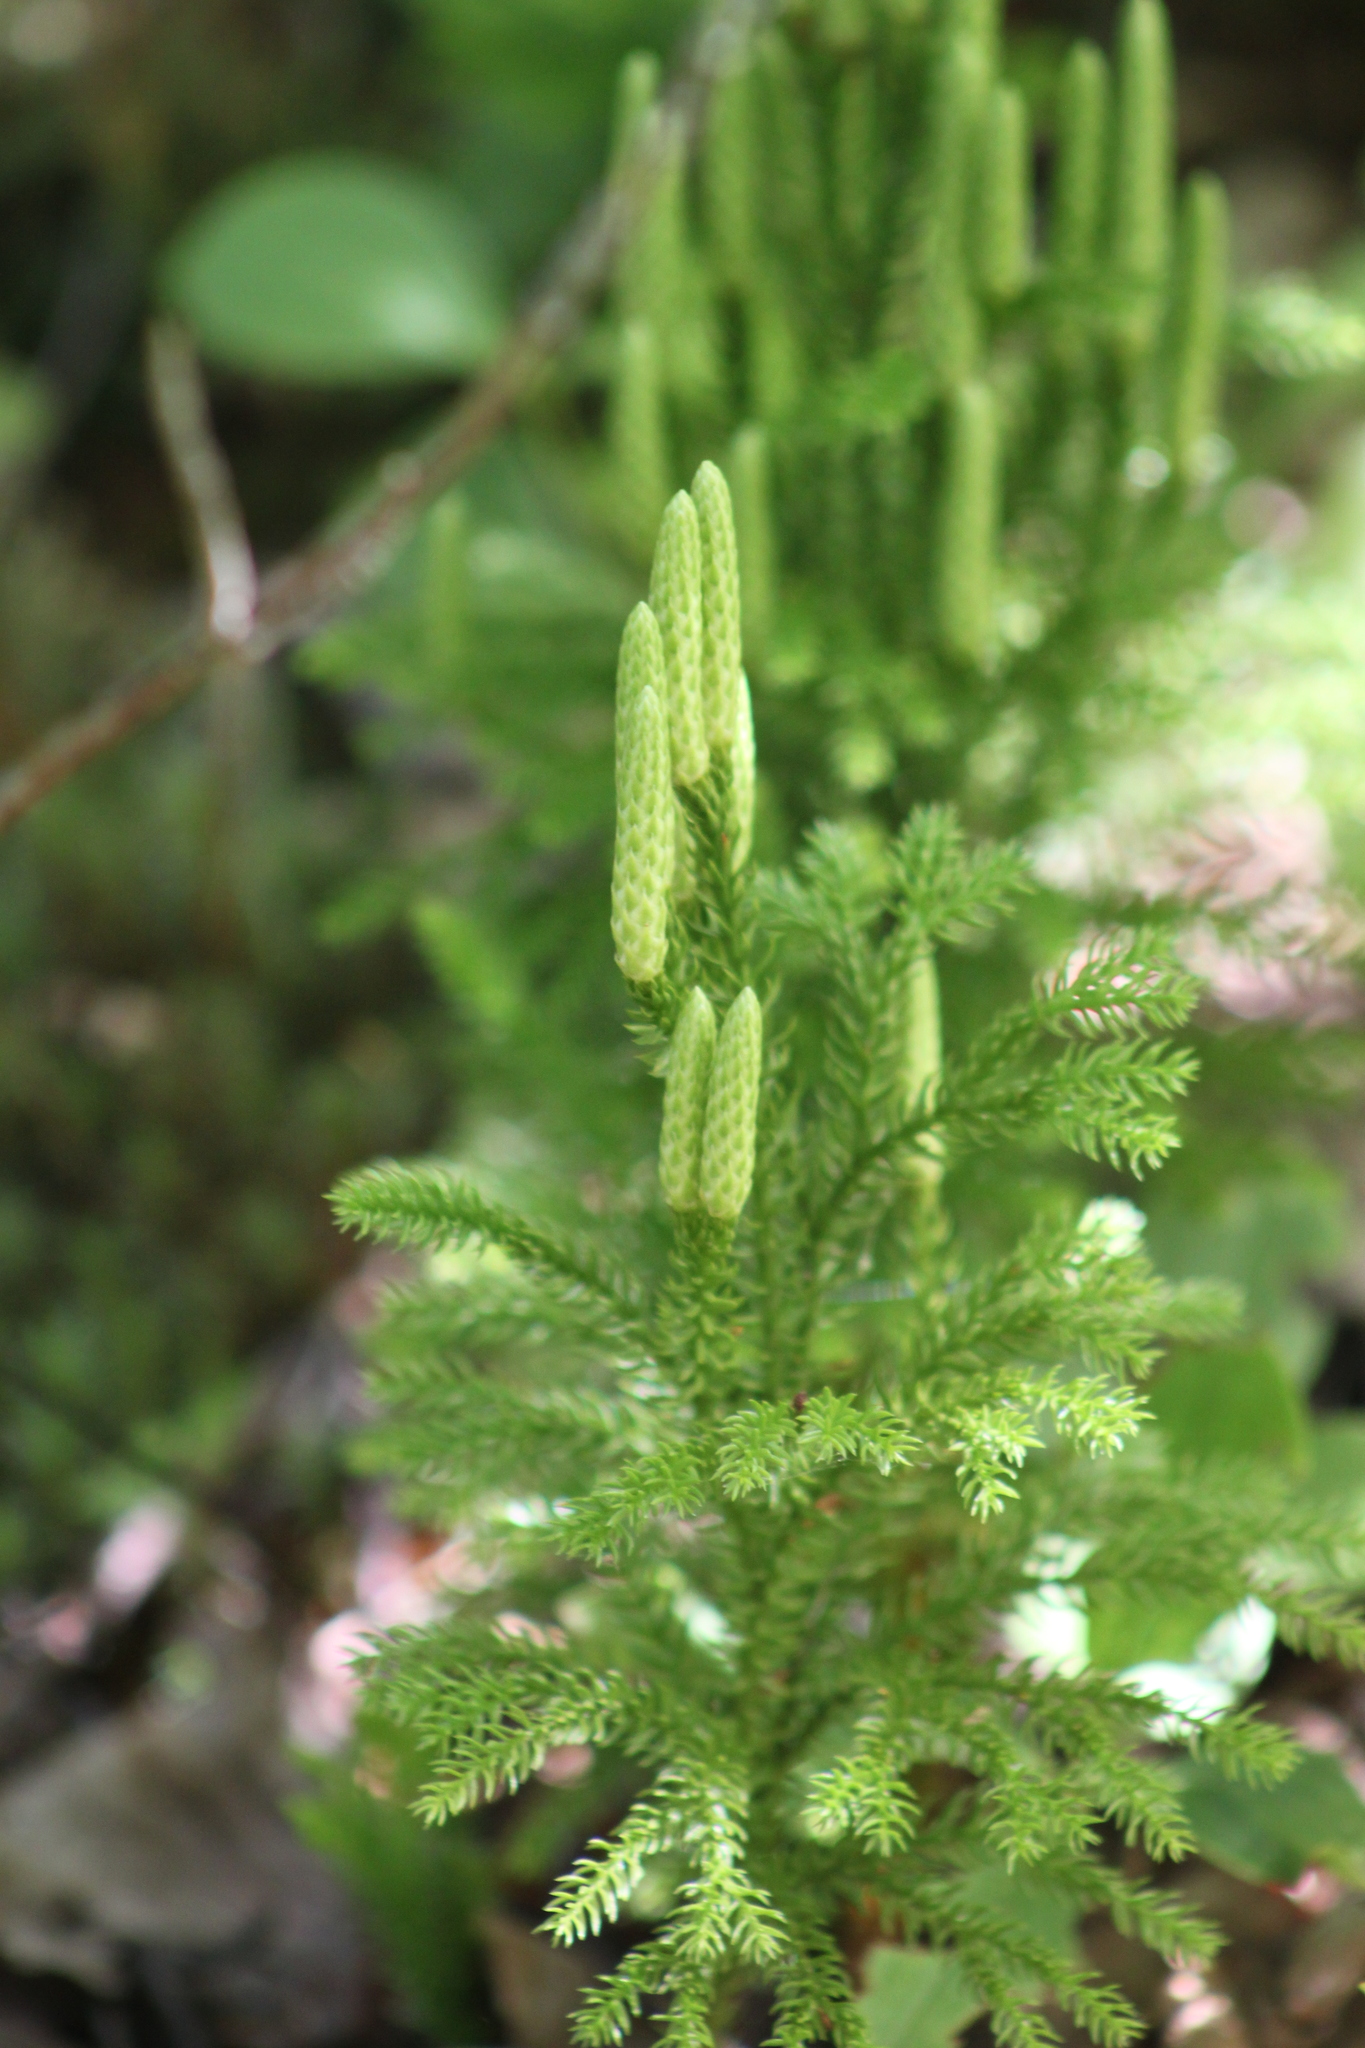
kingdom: Plantae
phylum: Tracheophyta
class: Lycopodiopsida
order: Lycopodiales
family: Lycopodiaceae
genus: Dendrolycopodium
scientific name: Dendrolycopodium dendroideum
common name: Northern tree-clubmoss
